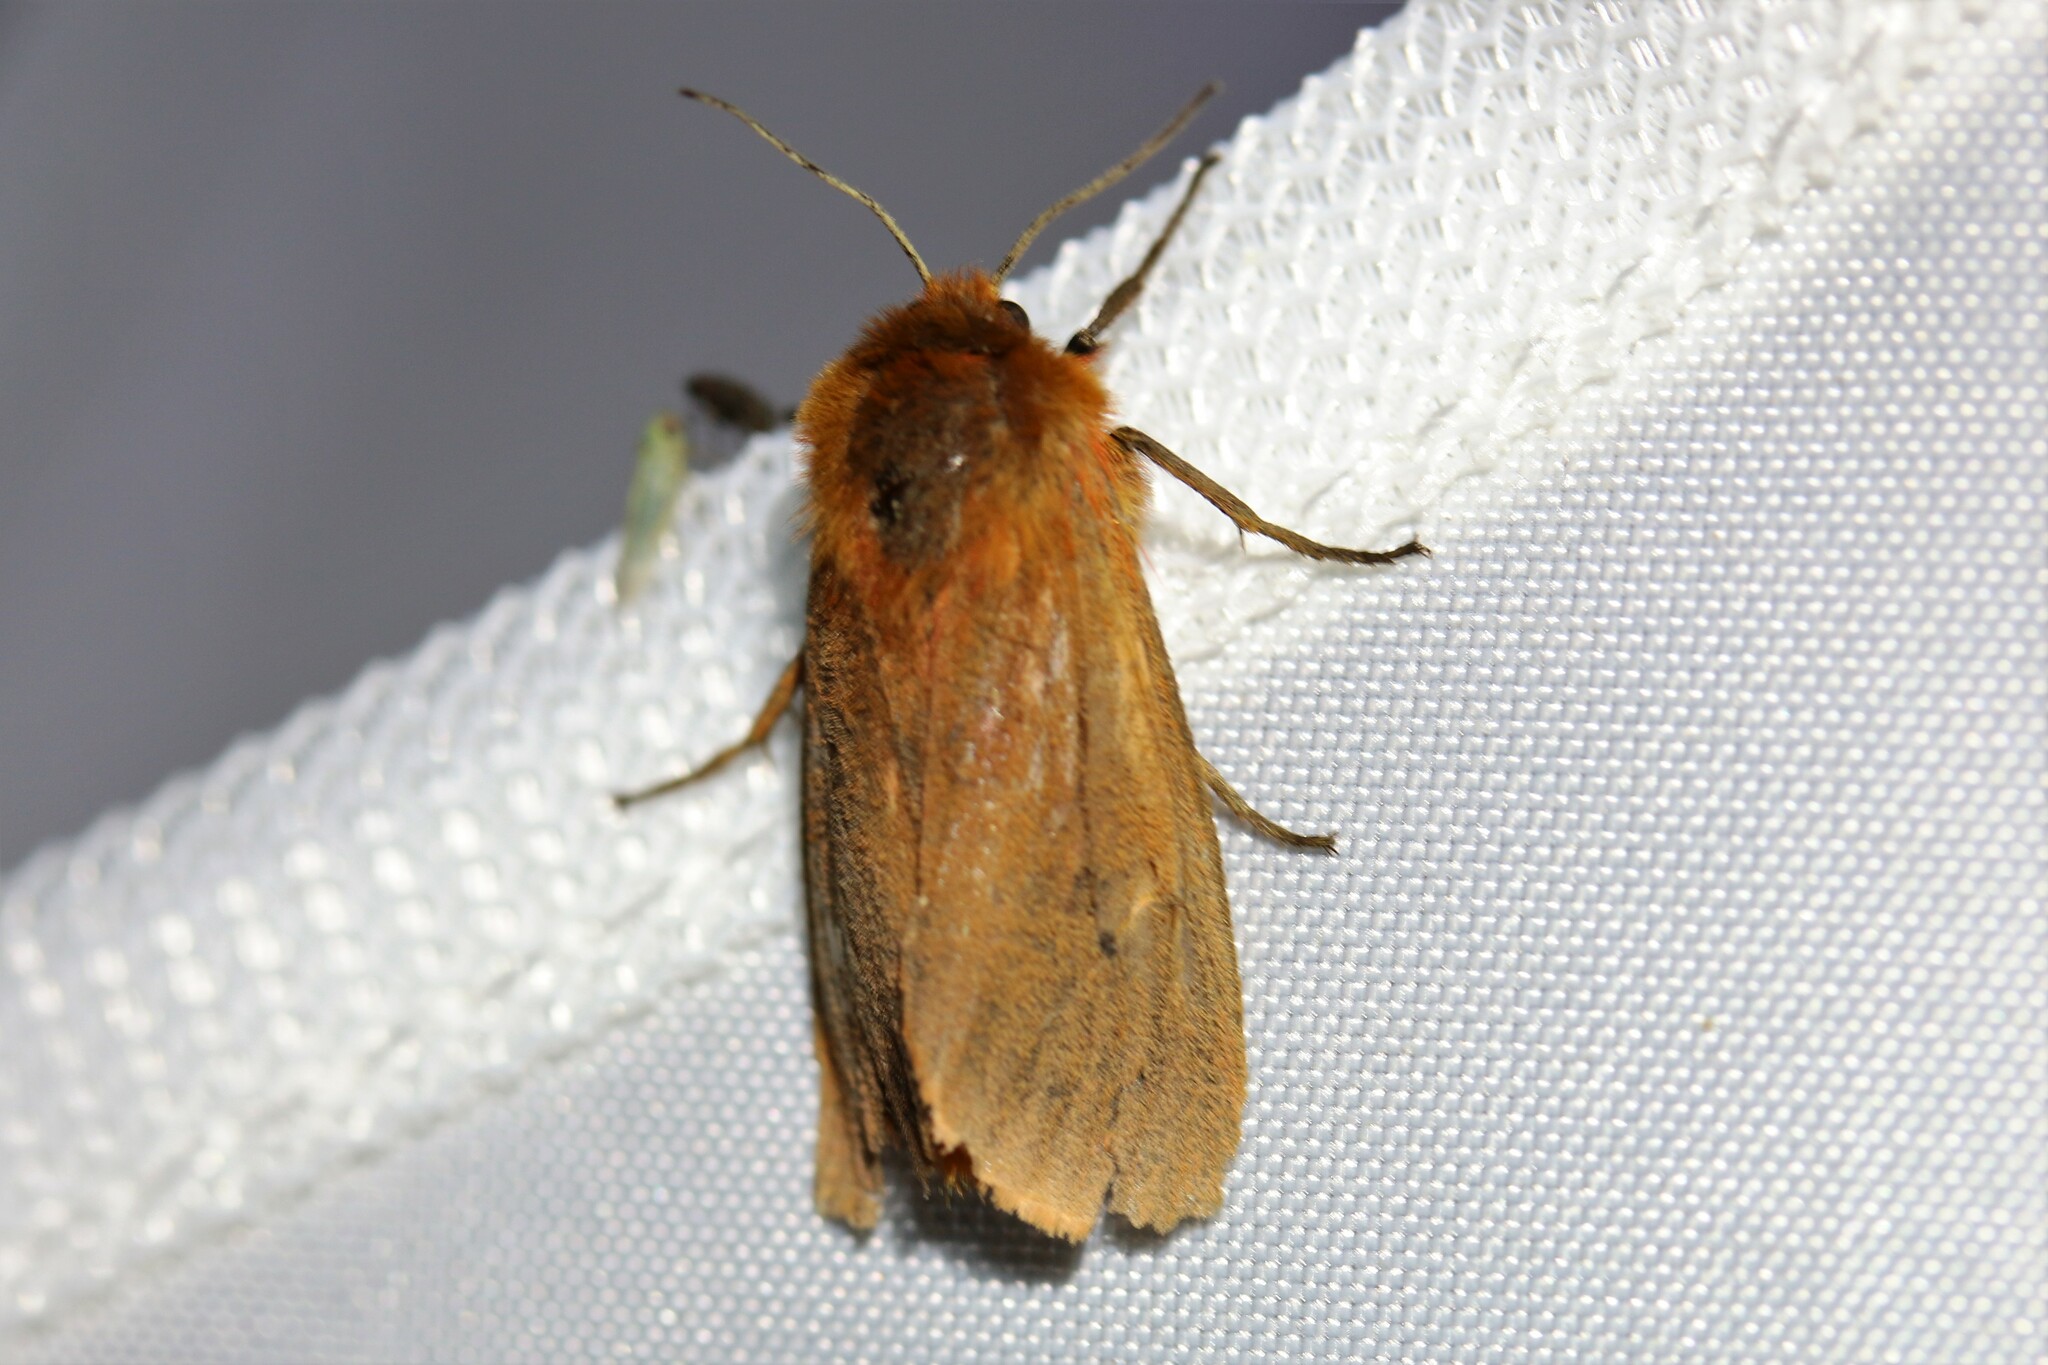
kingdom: Animalia
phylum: Arthropoda
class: Insecta
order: Lepidoptera
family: Erebidae
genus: Phragmatobia
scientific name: Phragmatobia fuliginosa
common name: Ruby tiger
